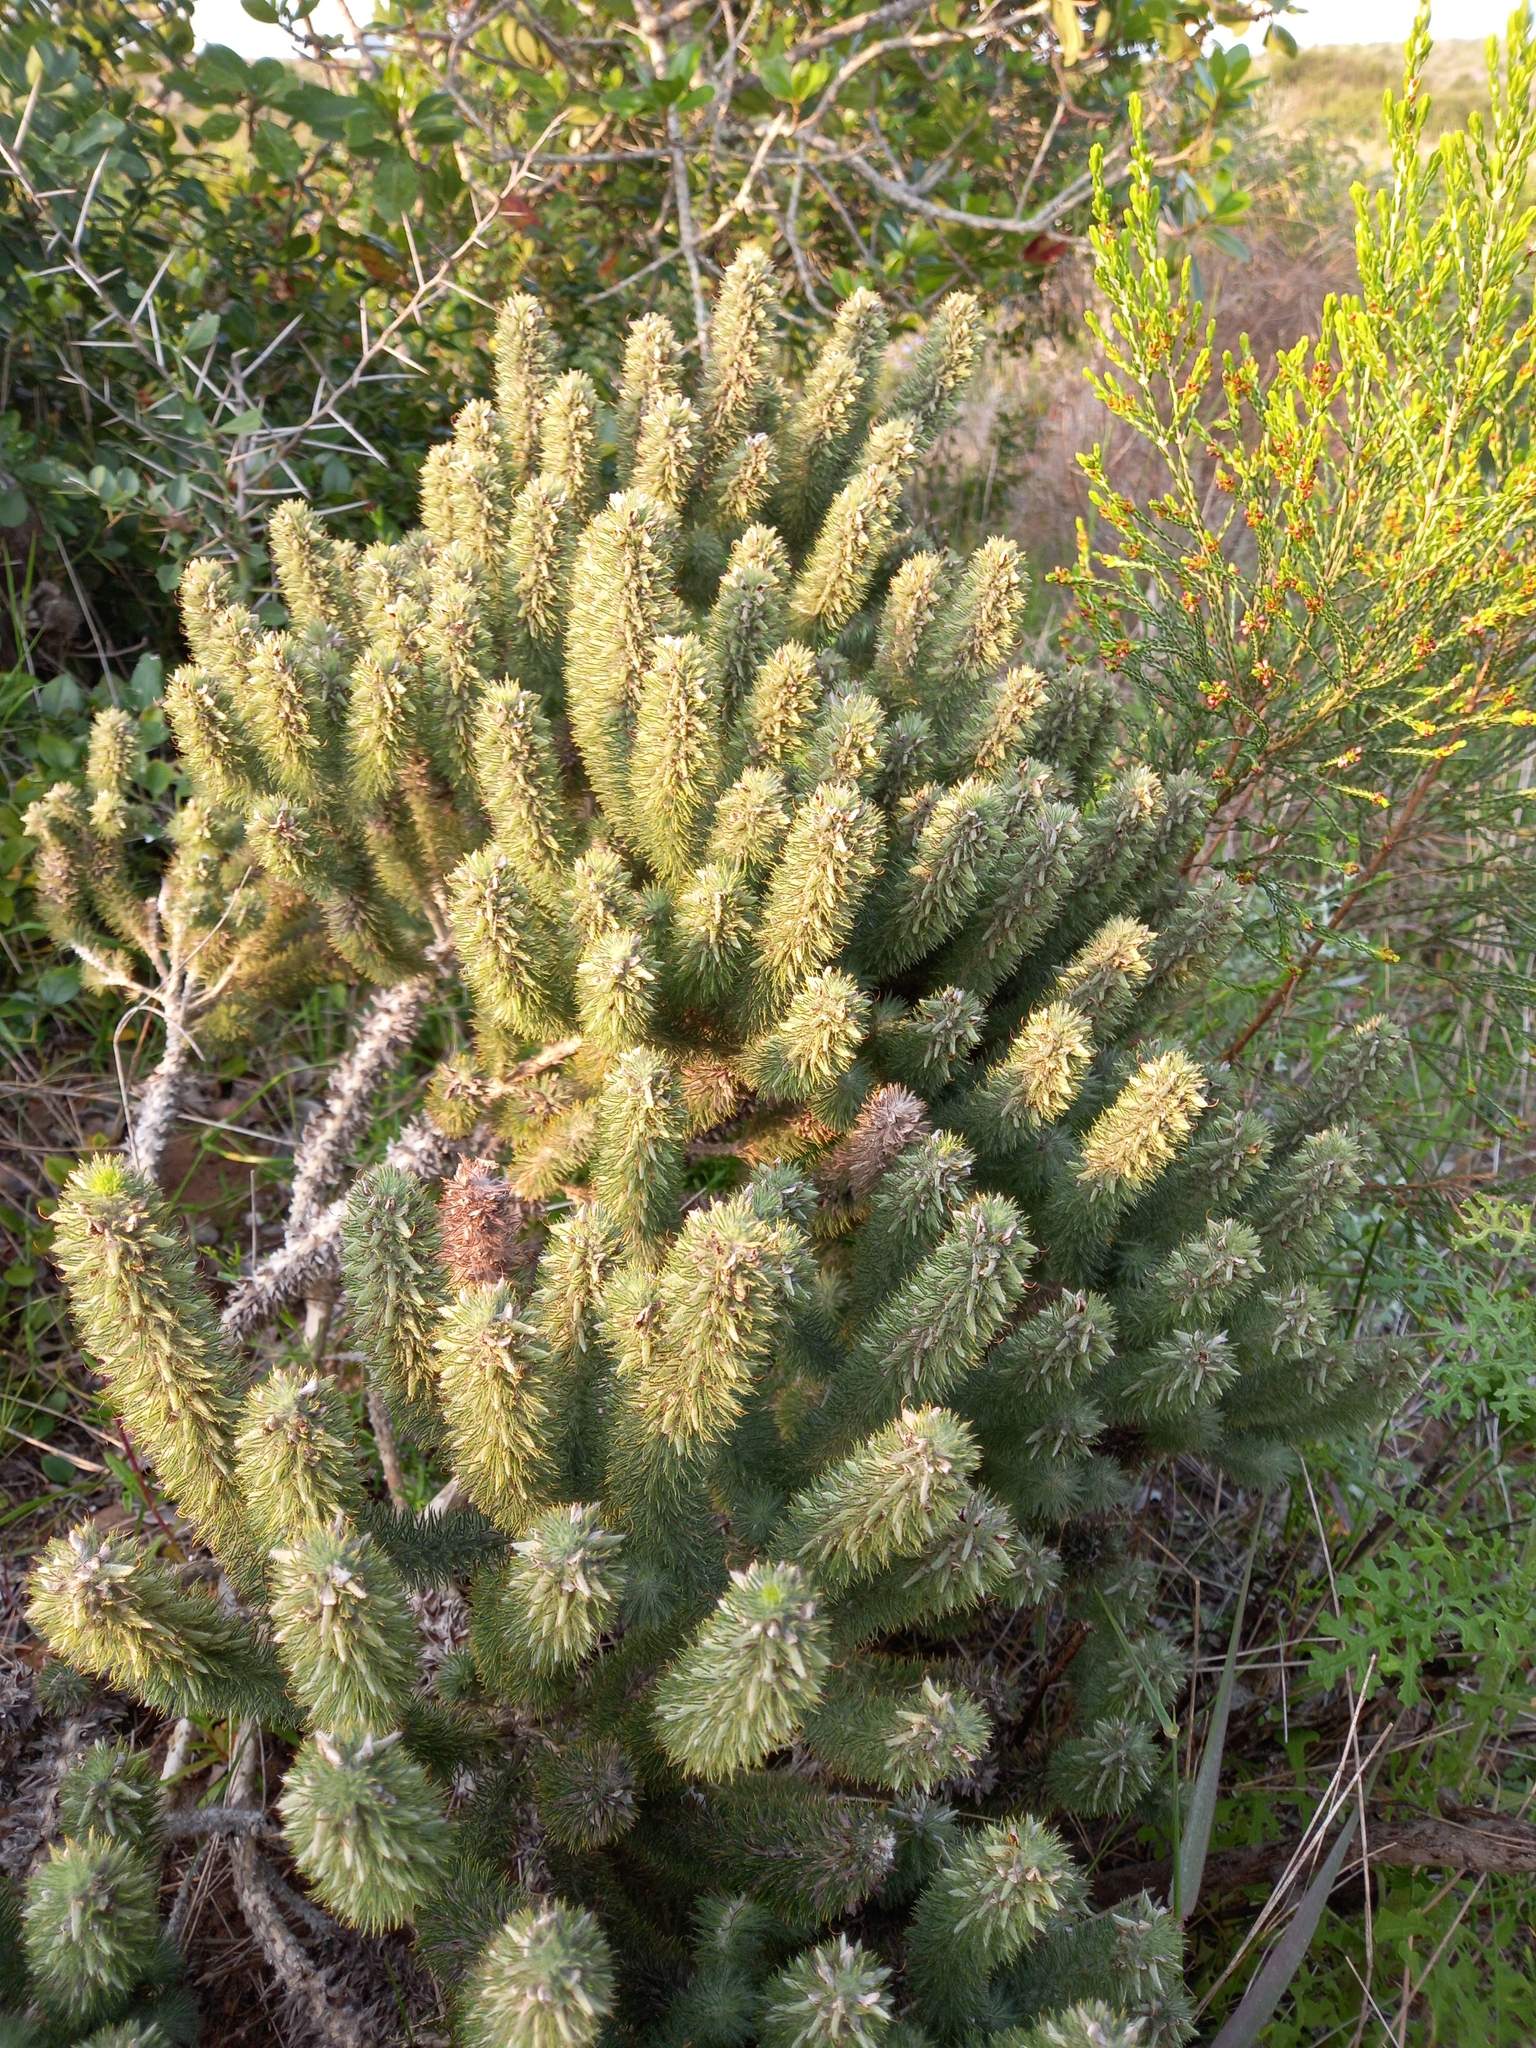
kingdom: Plantae
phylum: Tracheophyta
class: Magnoliopsida
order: Fabales
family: Fabaceae
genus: Aspalathus
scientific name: Aspalathus alopecurus
